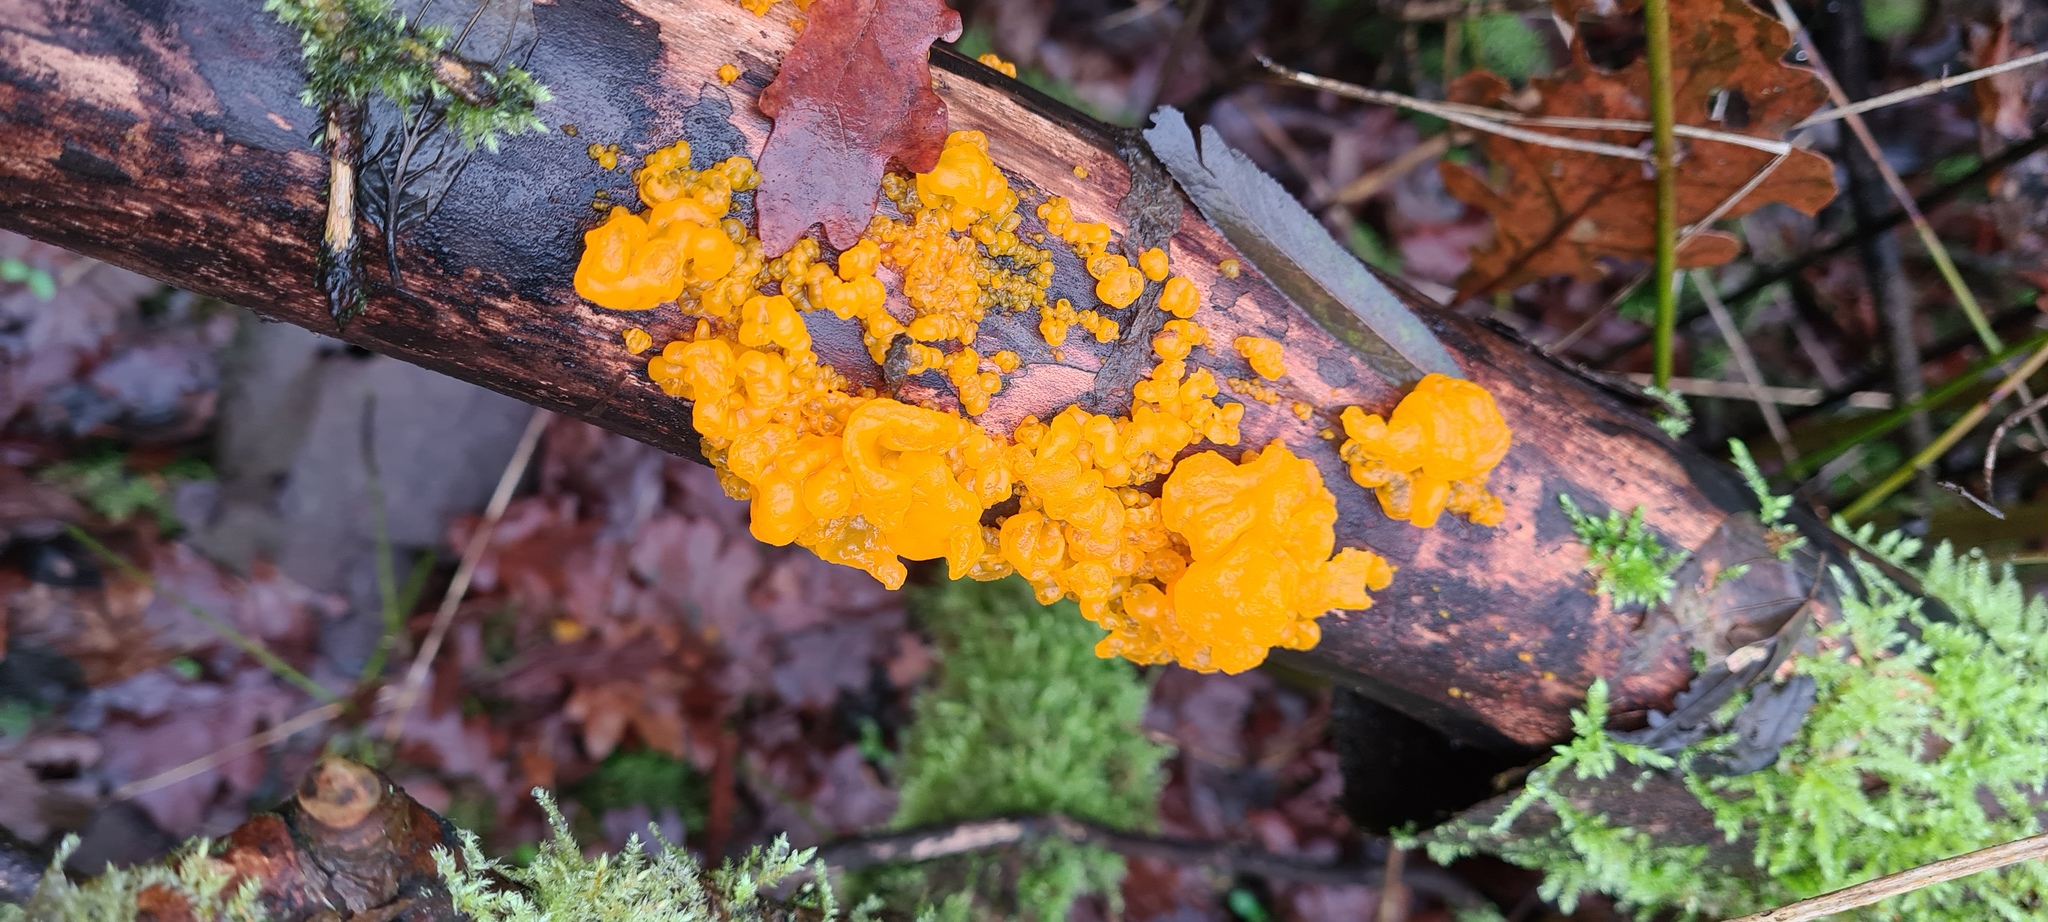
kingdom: Fungi
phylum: Basidiomycota
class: Tremellomycetes
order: Tremellales
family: Tremellaceae
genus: Tremella
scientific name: Tremella mesenterica
